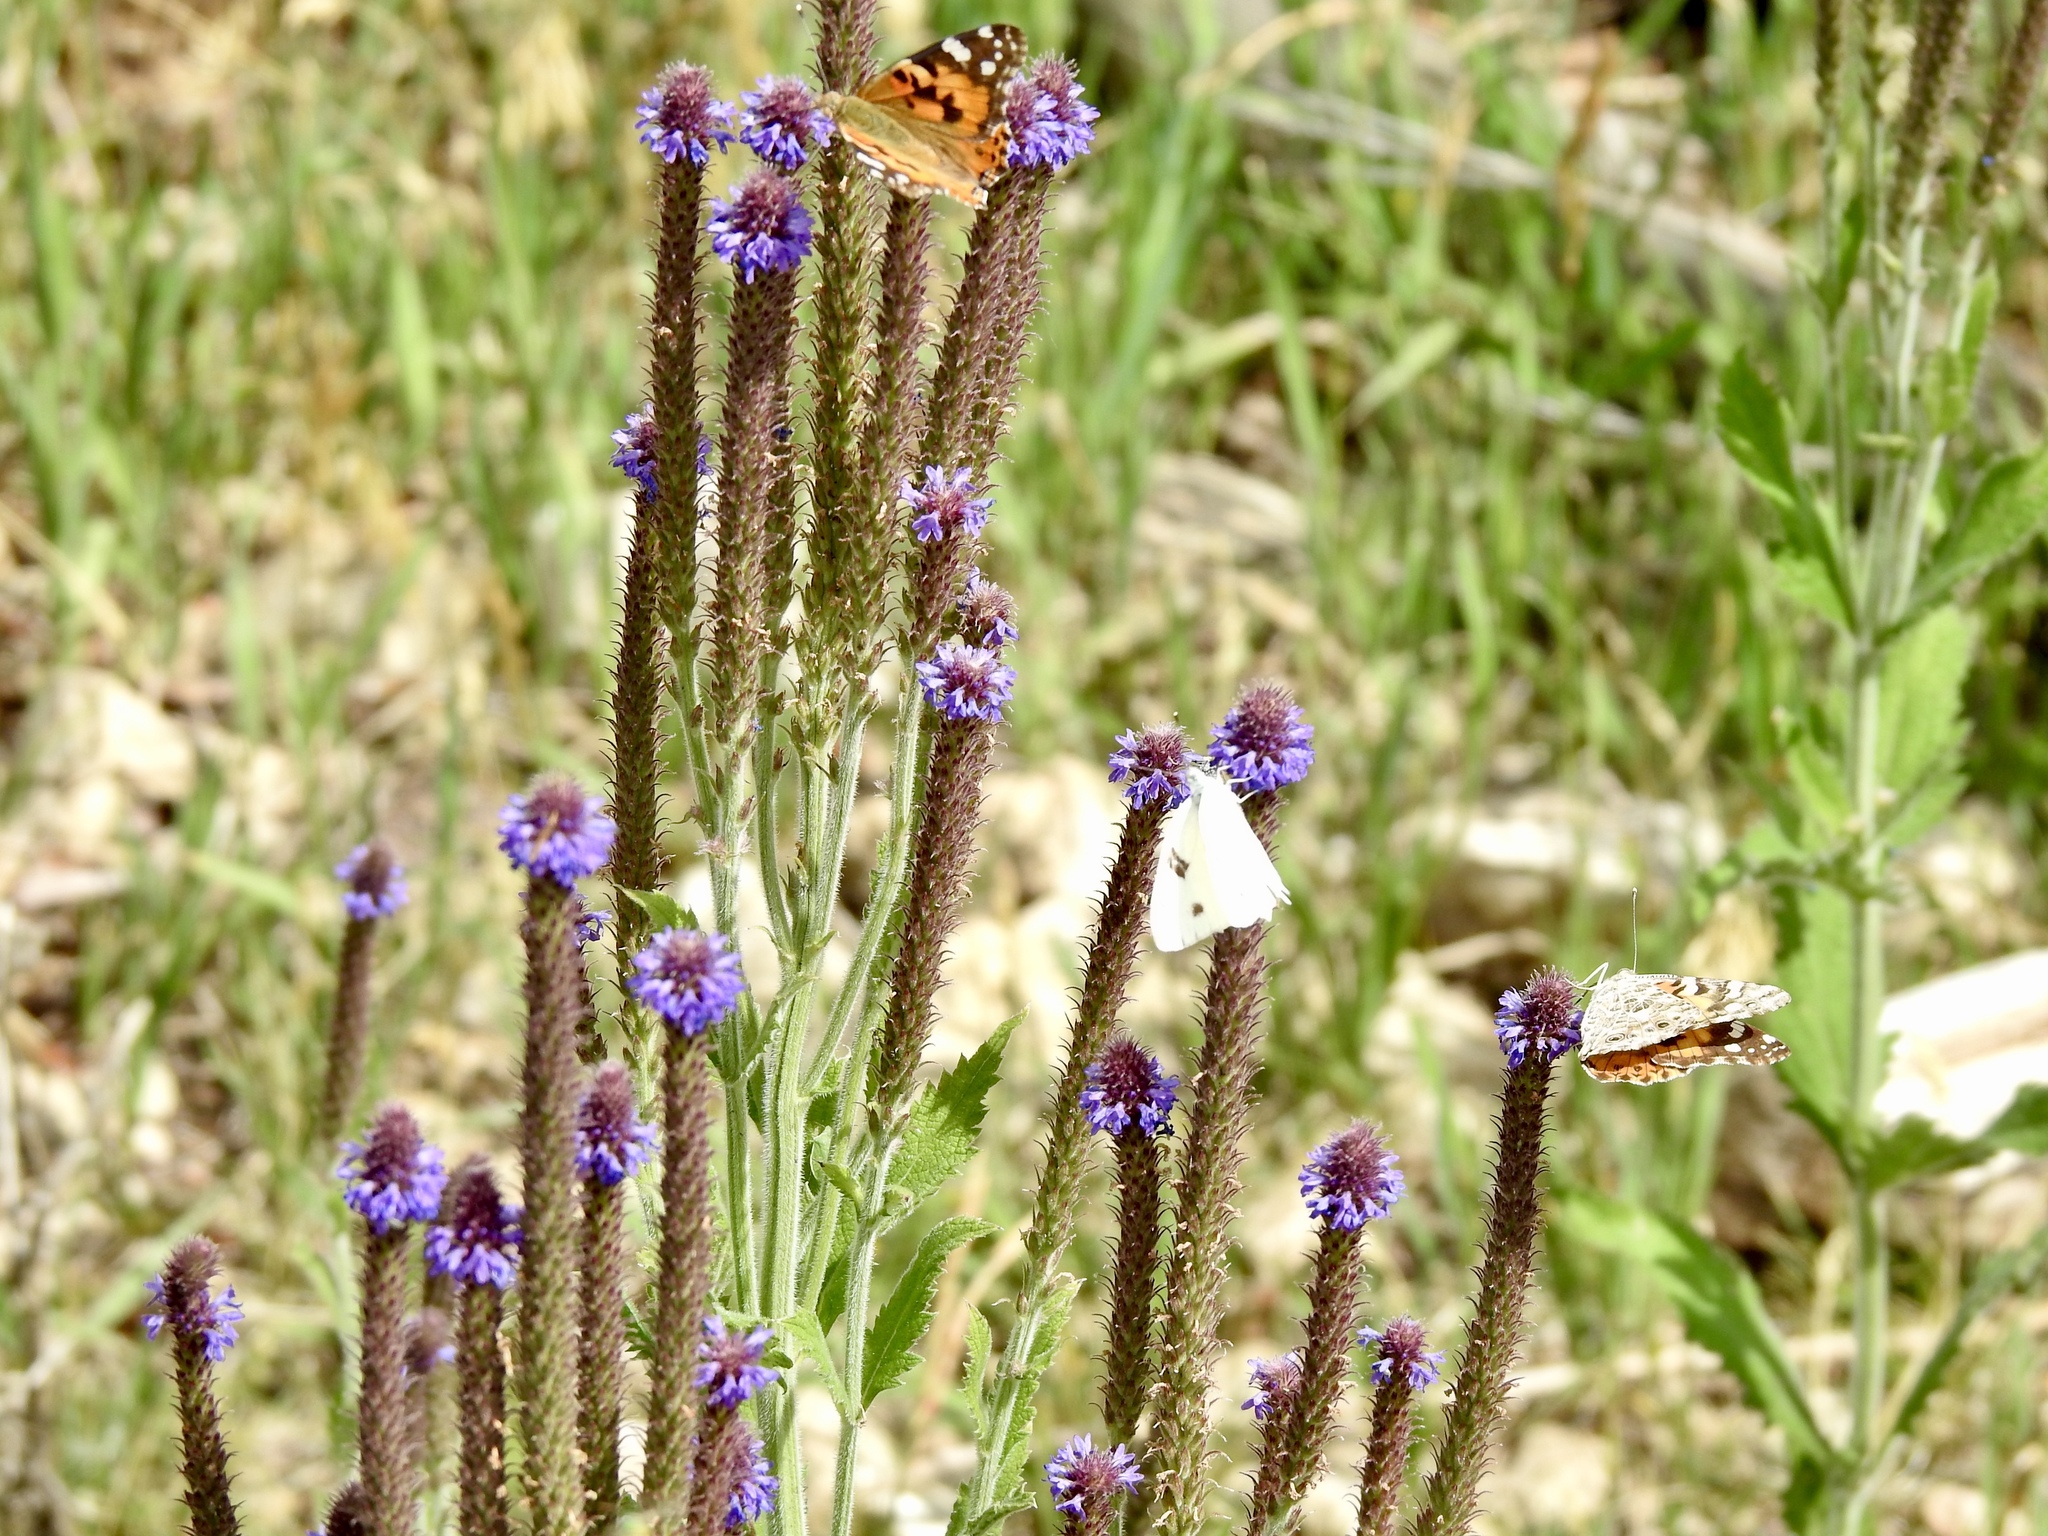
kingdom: Animalia
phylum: Arthropoda
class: Insecta
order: Lepidoptera
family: Pieridae
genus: Pontia
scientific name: Pontia protodice
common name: Checkered white
